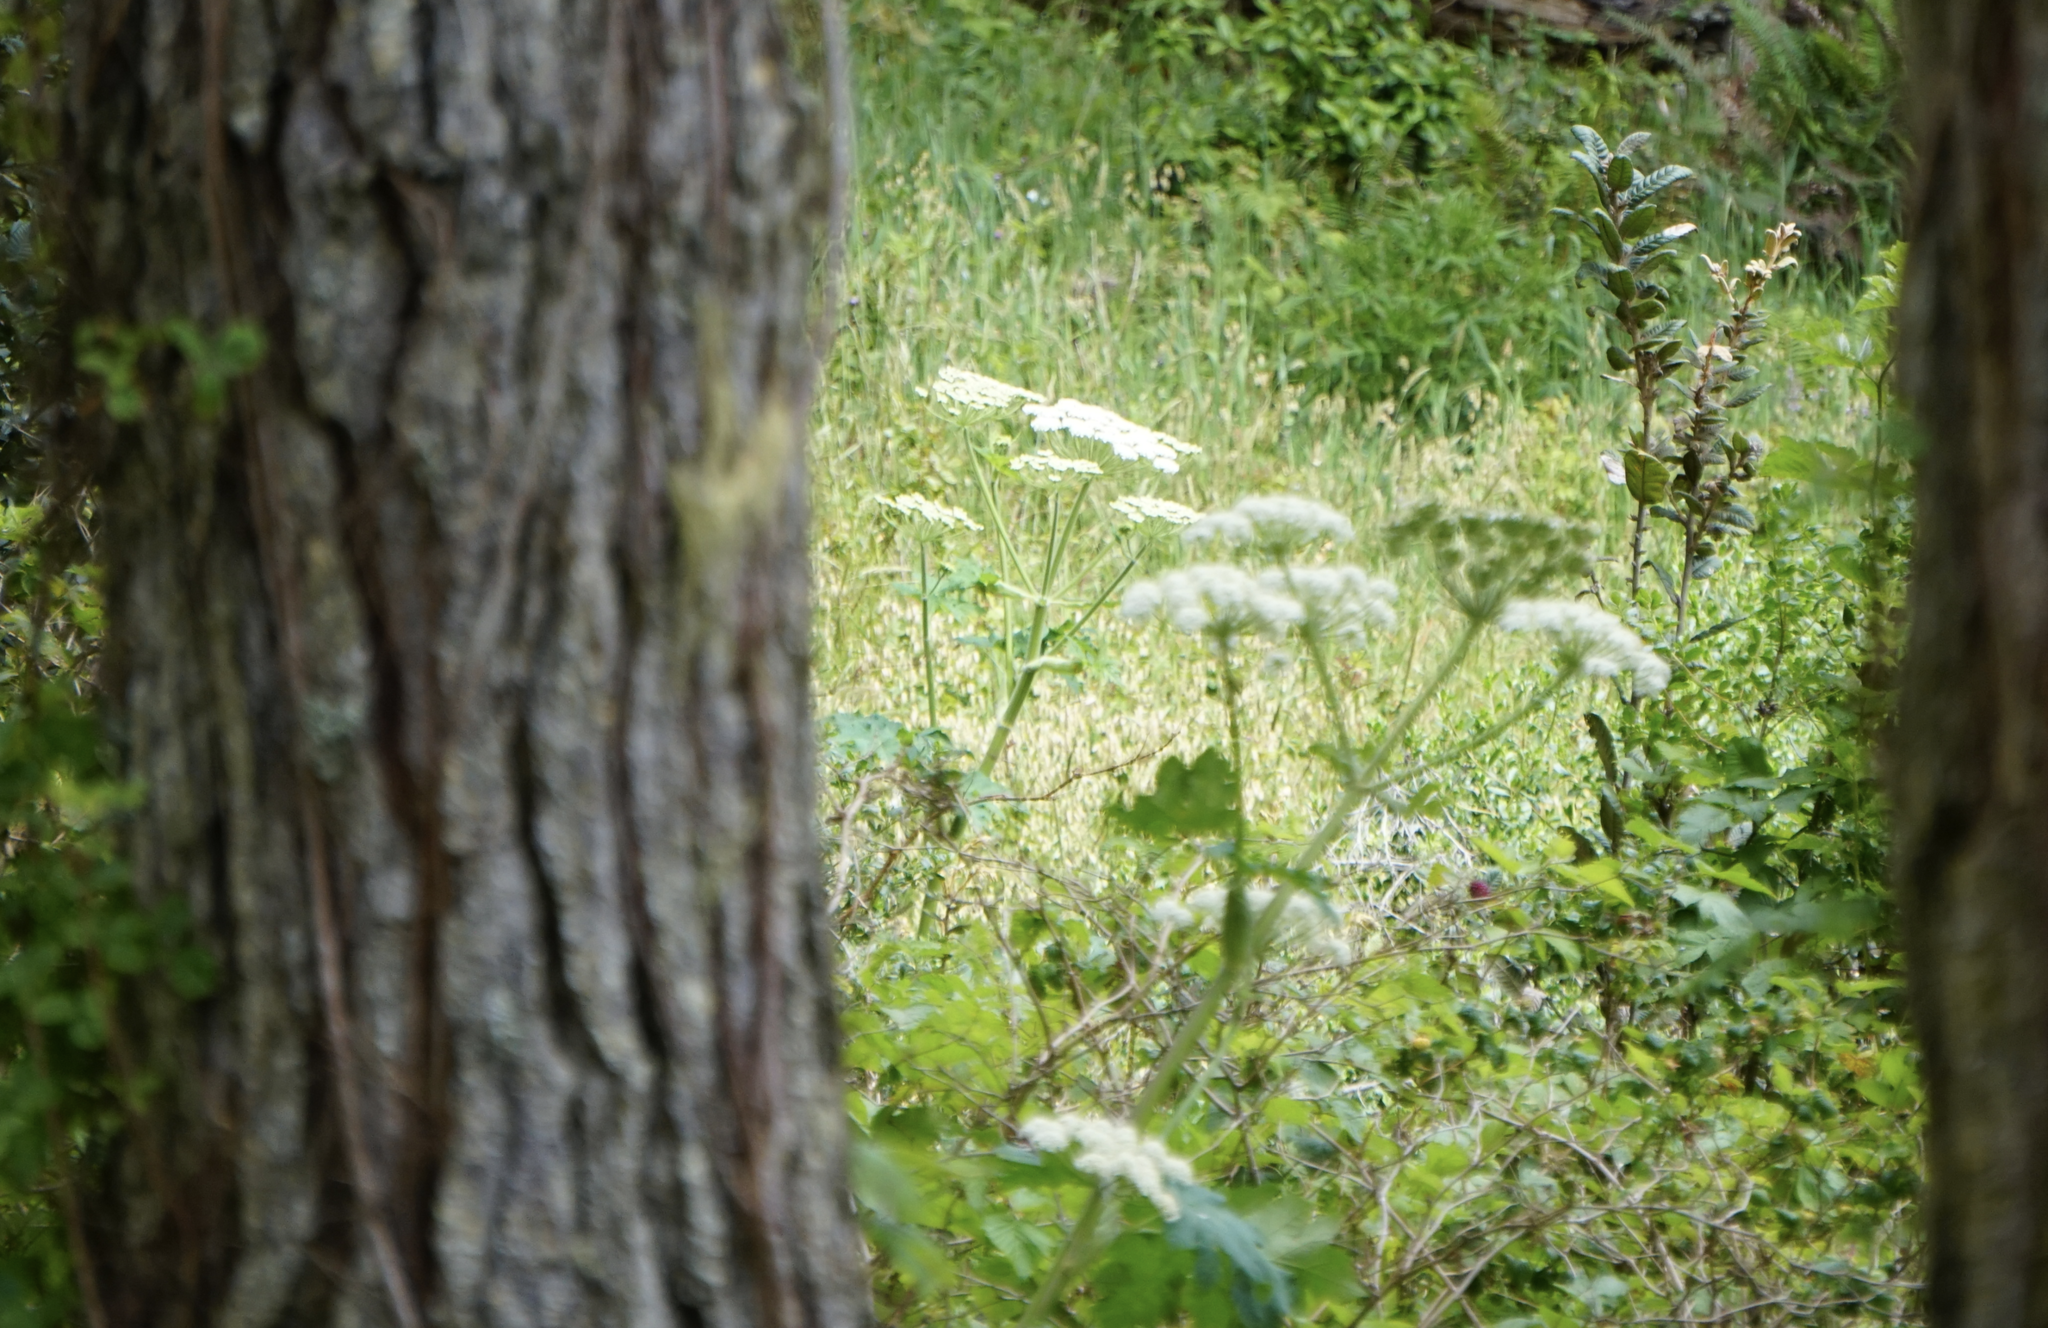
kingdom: Plantae
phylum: Tracheophyta
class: Magnoliopsida
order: Apiales
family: Apiaceae
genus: Heracleum
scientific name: Heracleum maximum
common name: American cow parsnip
